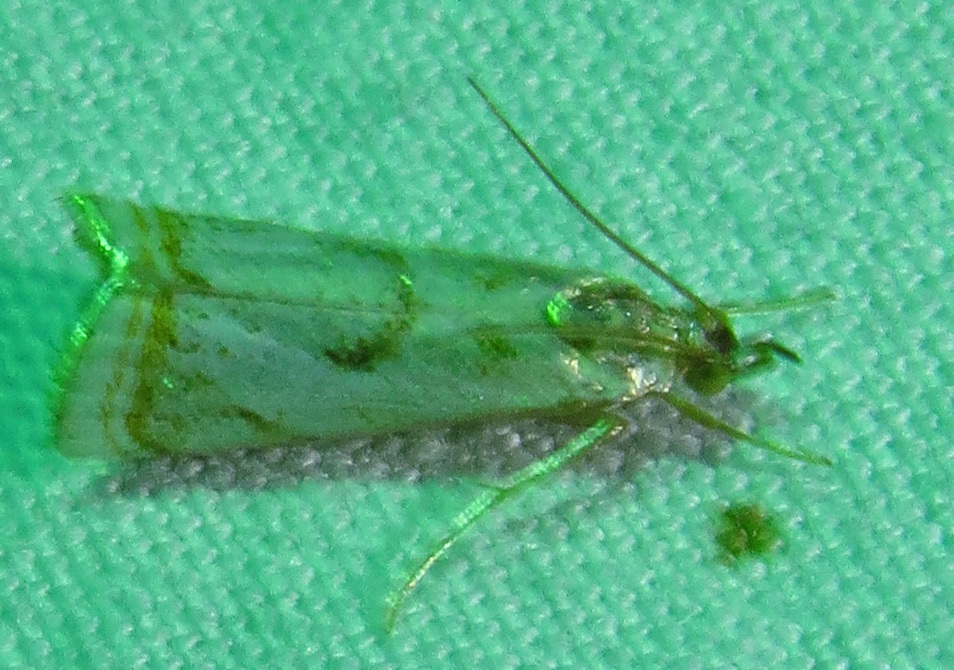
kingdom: Animalia
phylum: Arthropoda
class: Insecta
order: Lepidoptera
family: Crambidae
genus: Microcrambus
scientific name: Microcrambus elegans
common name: Elegant grass-veneer
